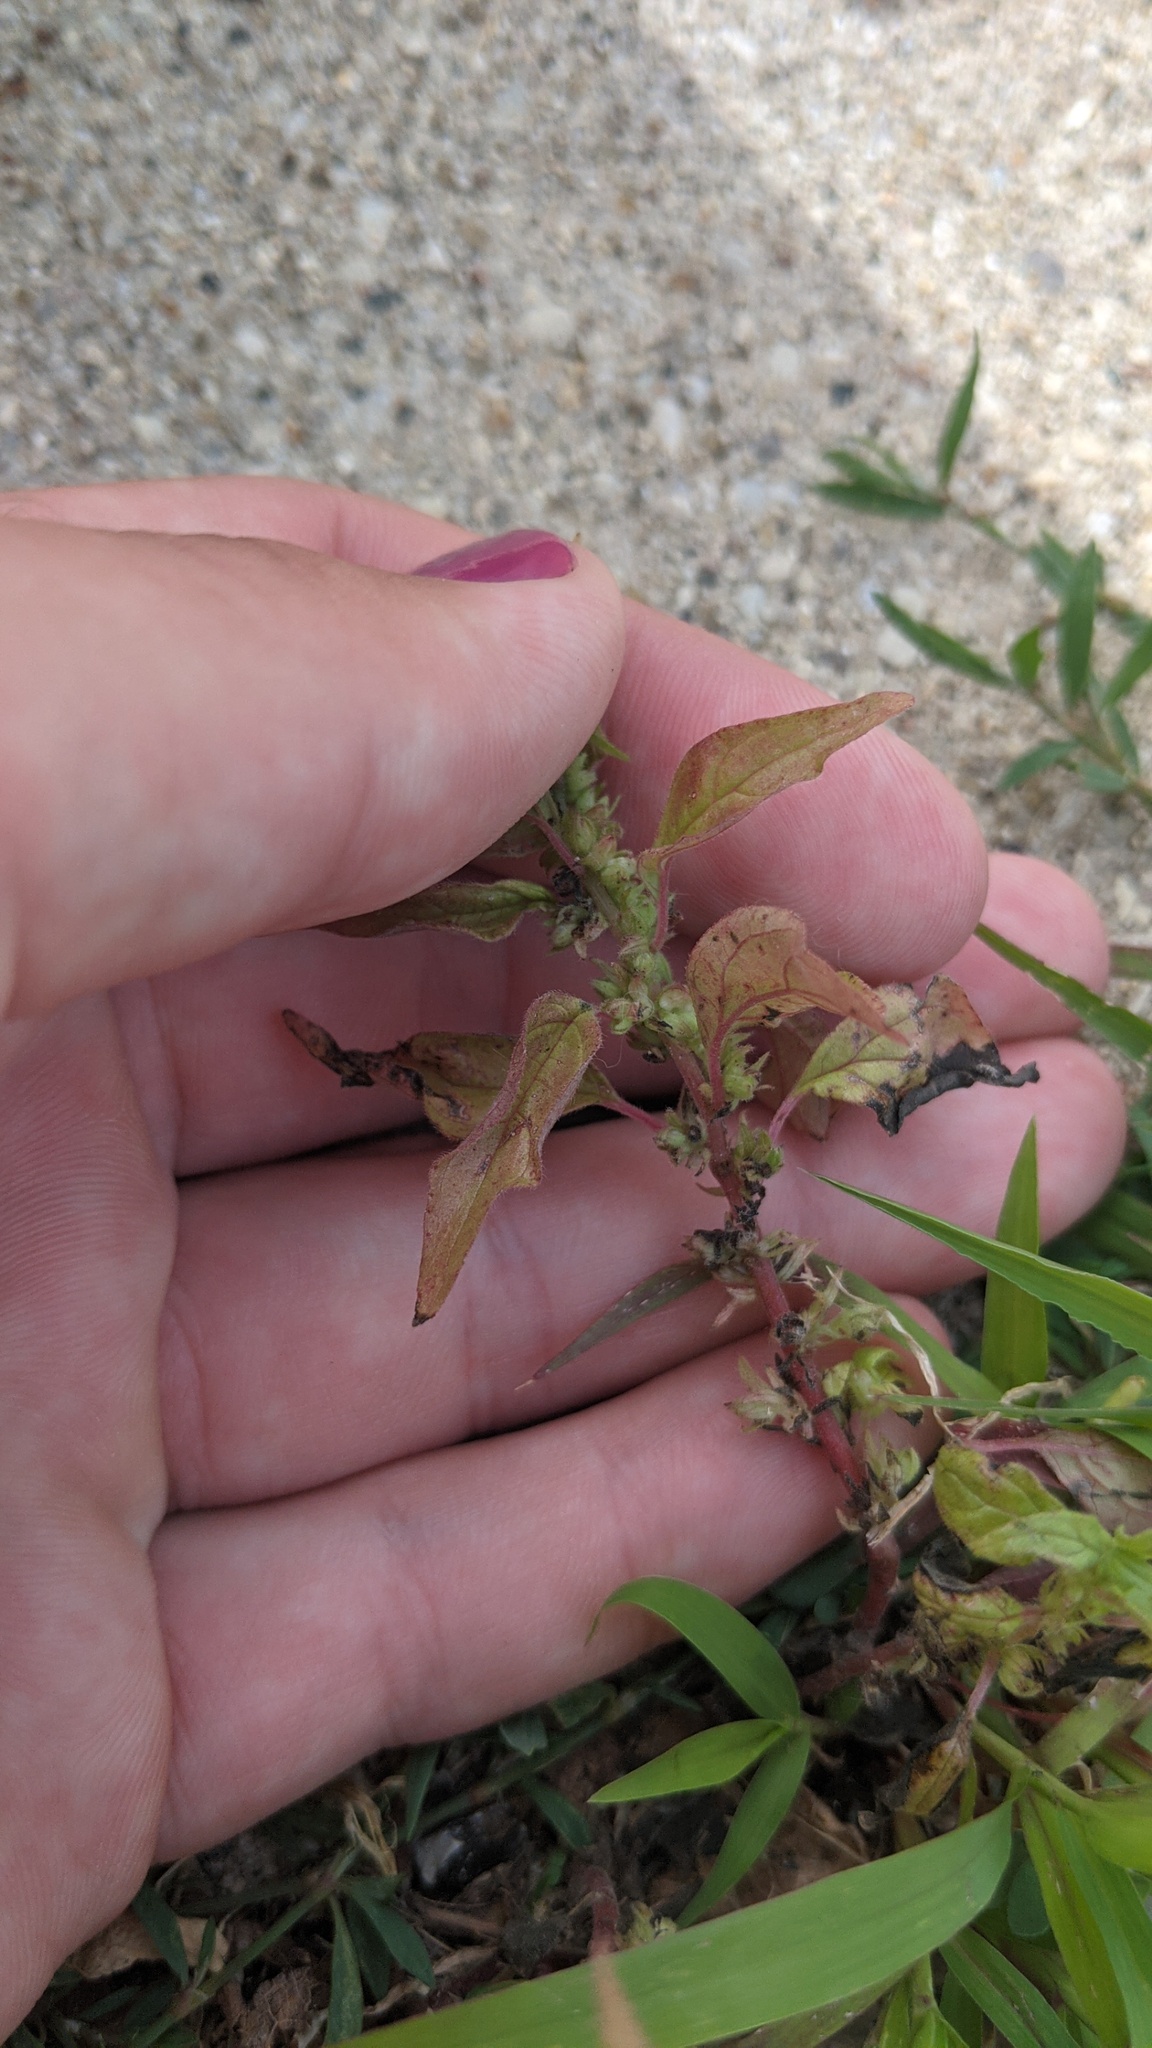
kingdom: Plantae
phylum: Tracheophyta
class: Magnoliopsida
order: Rosales
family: Urticaceae
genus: Parietaria
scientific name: Parietaria pensylvanica
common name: Pennsylvania pellitory
